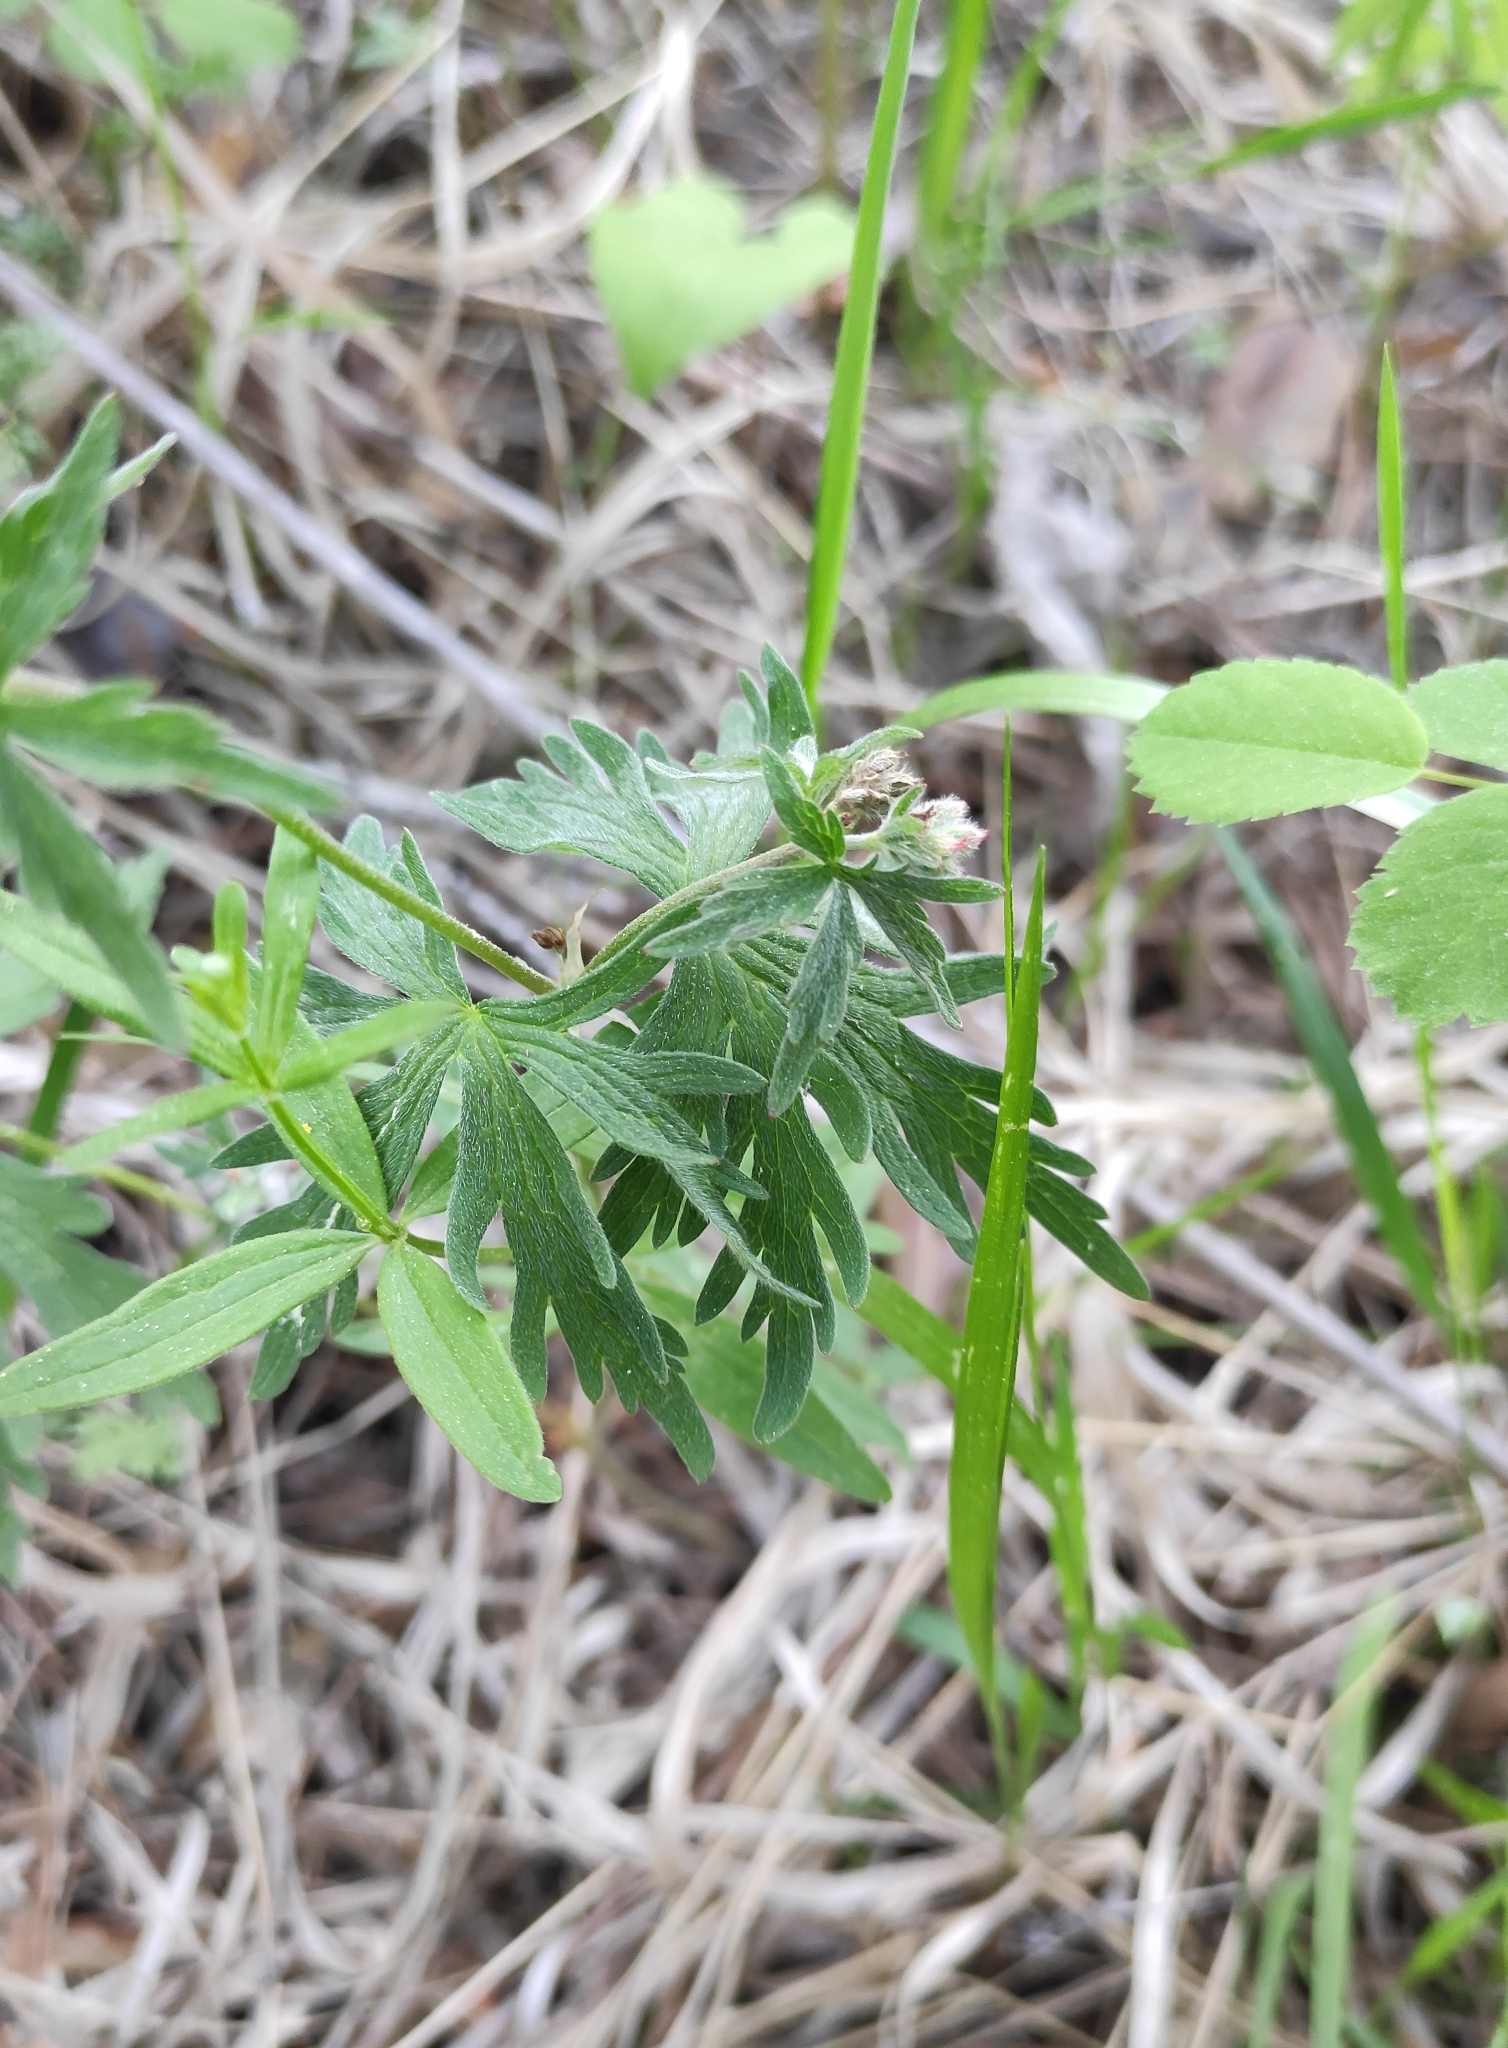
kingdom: Plantae
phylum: Tracheophyta
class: Magnoliopsida
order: Geraniales
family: Geraniaceae
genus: Geranium
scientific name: Geranium pseudosibiricum
